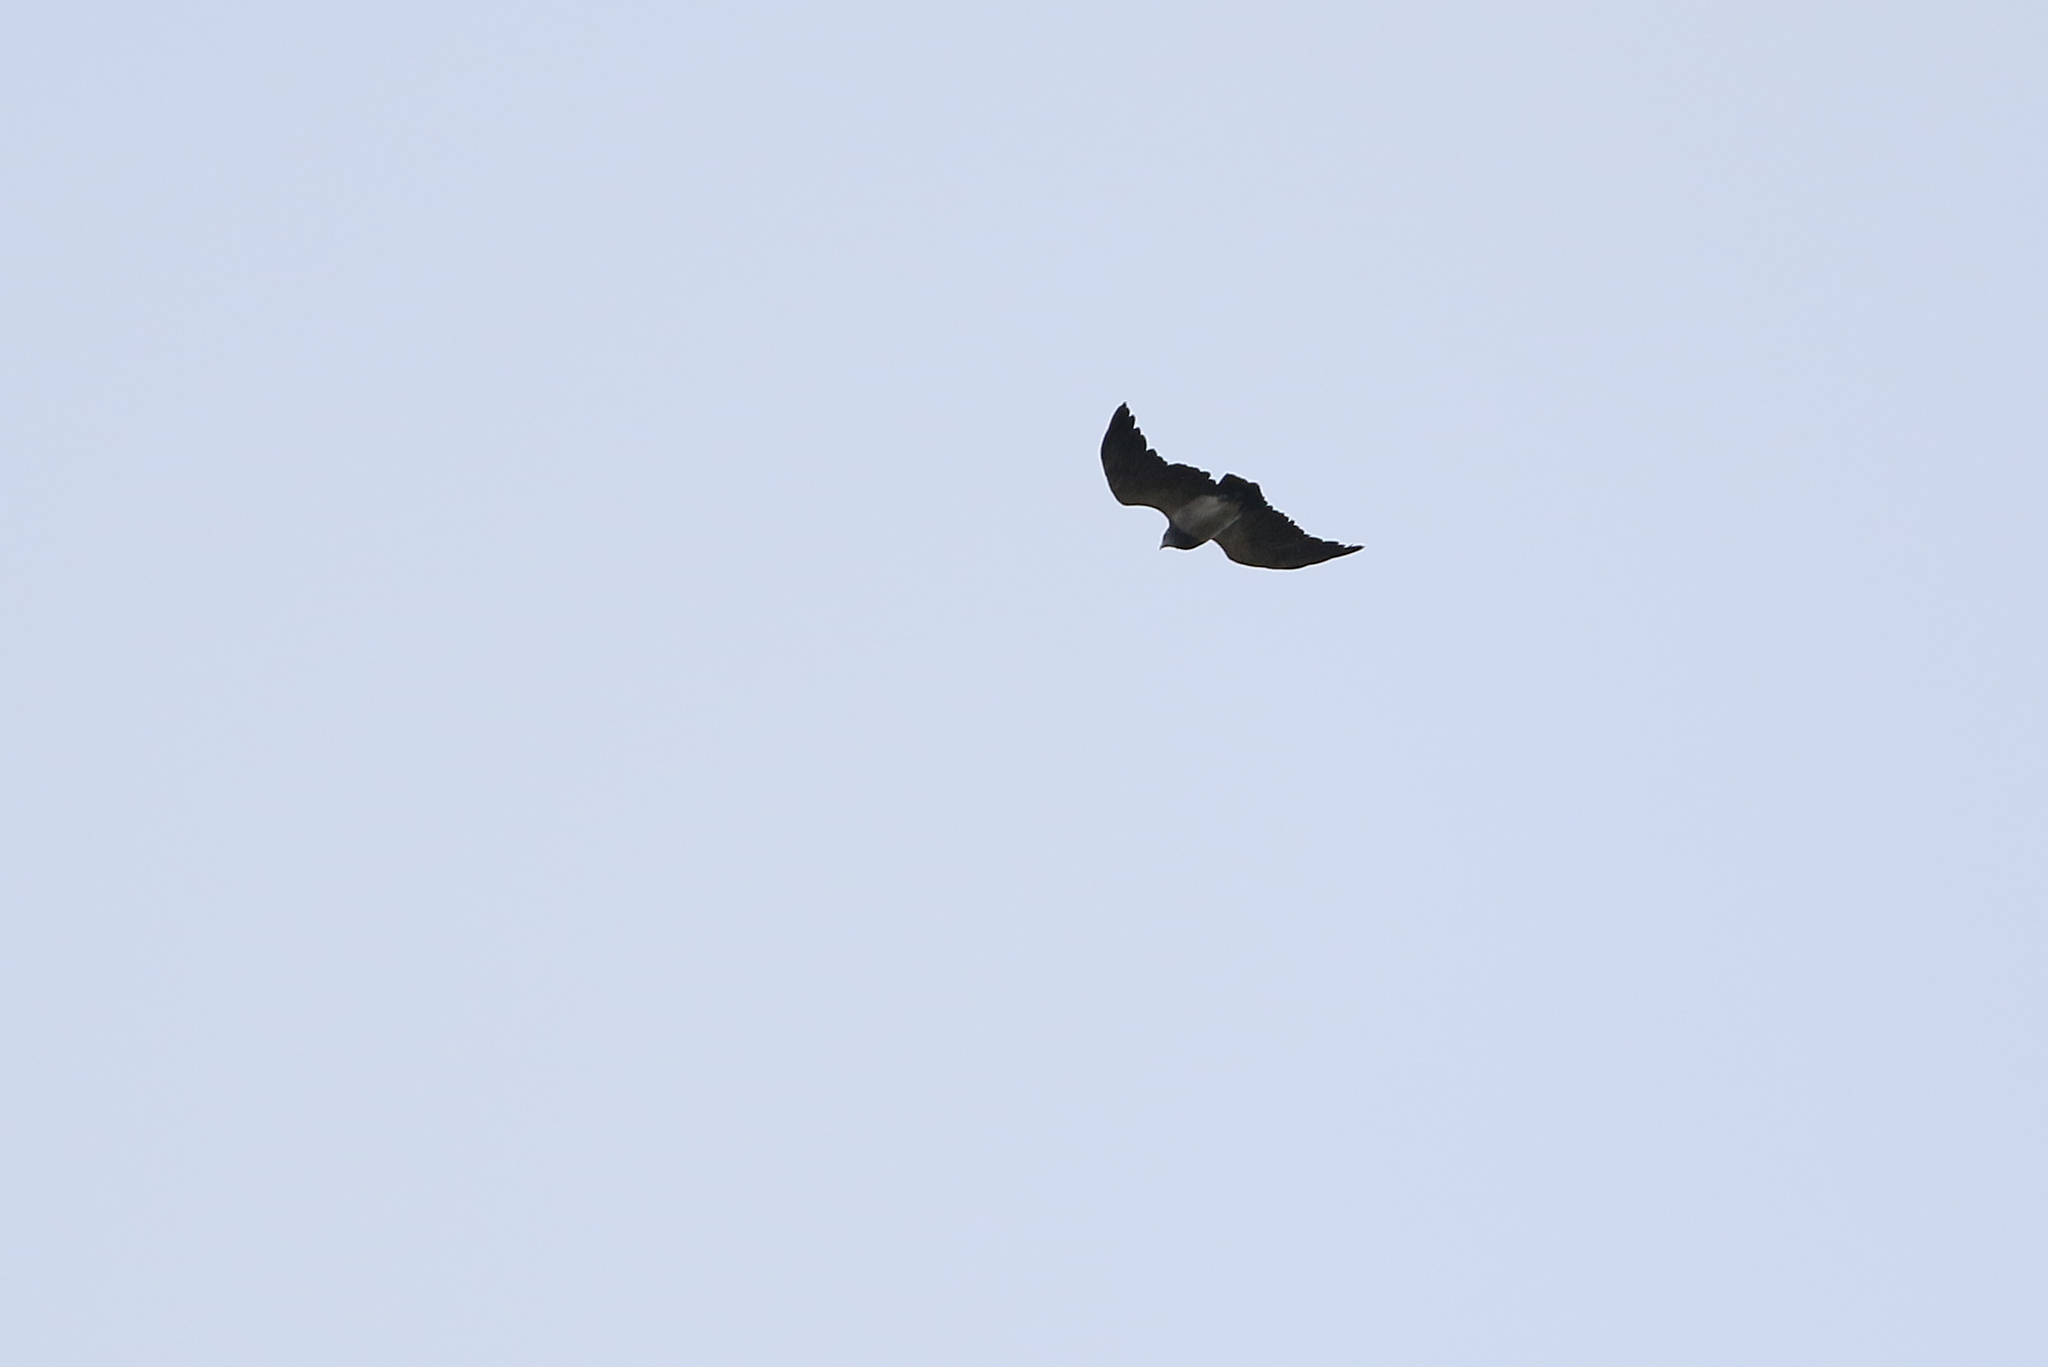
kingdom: Animalia
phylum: Chordata
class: Aves
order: Accipitriformes
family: Accipitridae
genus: Geranoaetus
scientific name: Geranoaetus melanoleucus
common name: Black-chested buzzard-eagle
